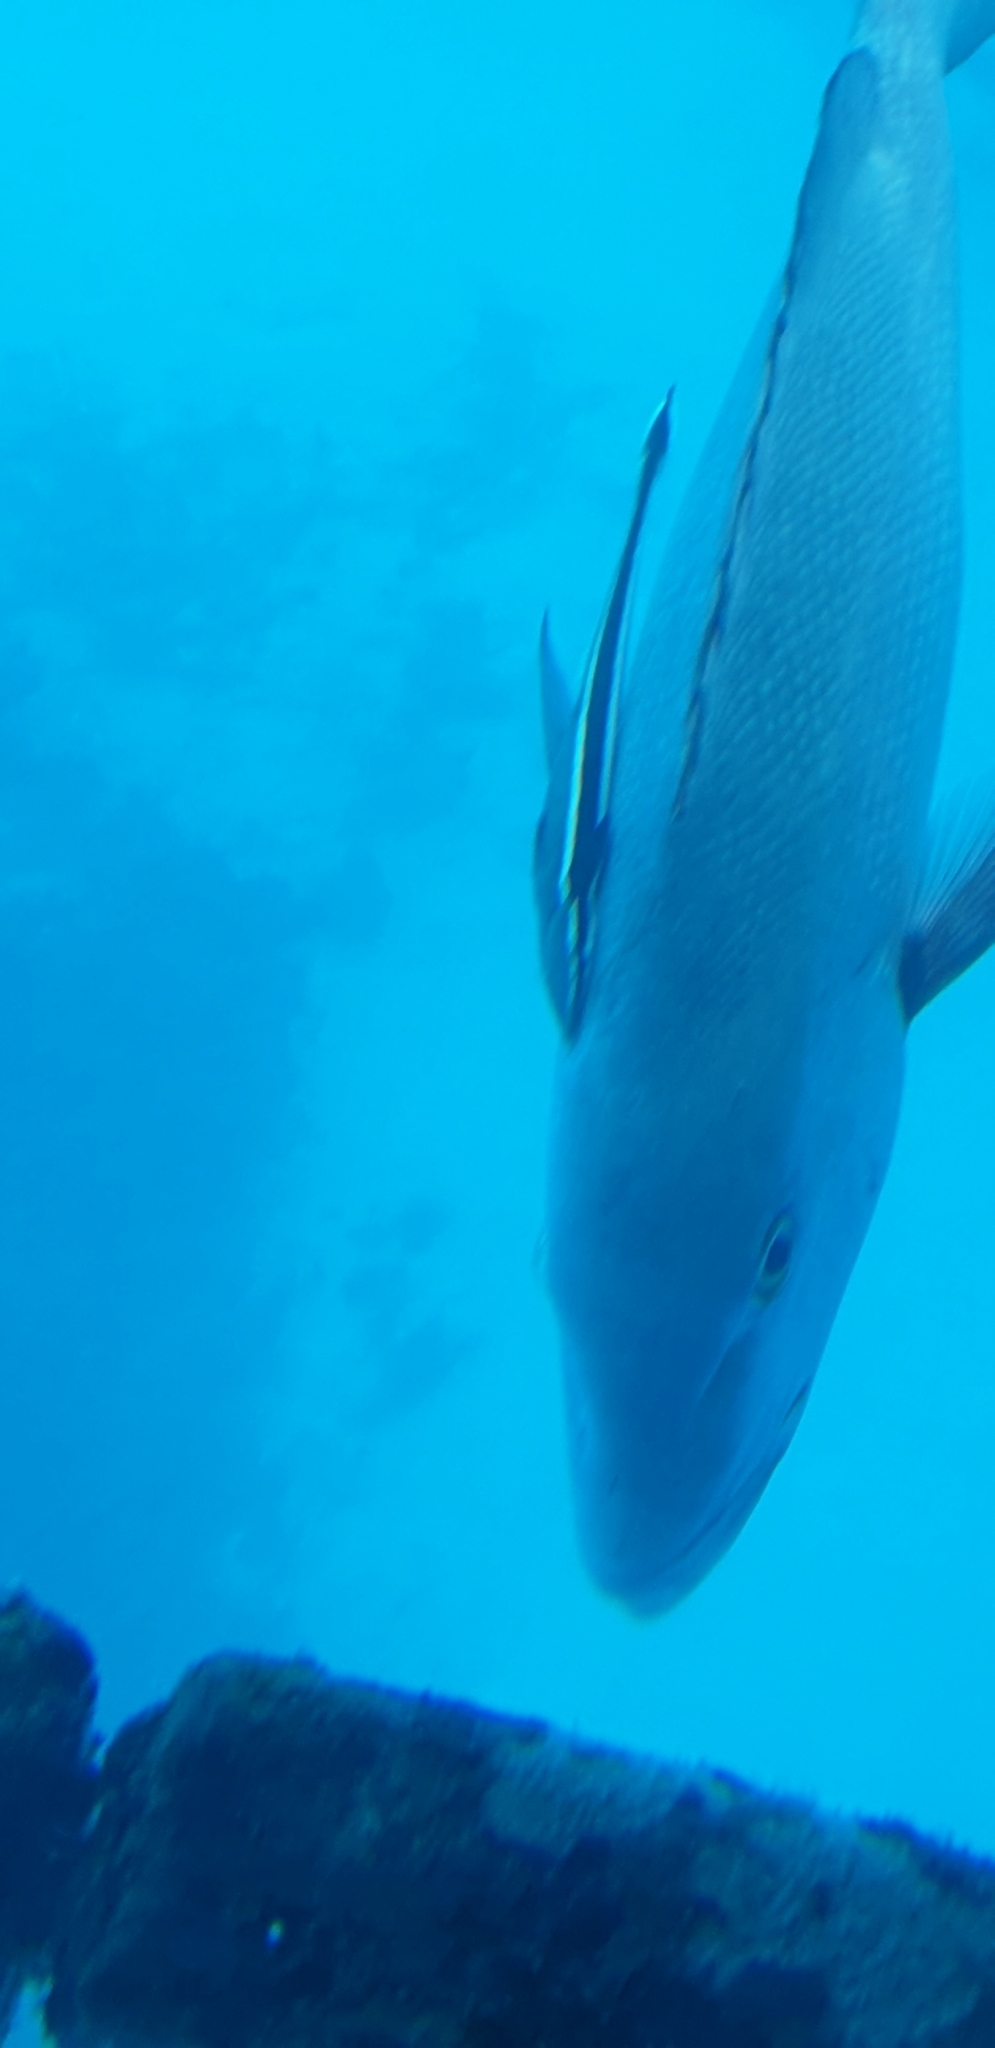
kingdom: Animalia
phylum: Chordata
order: Perciformes
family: Lutjanidae
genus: Lutjanus
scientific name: Lutjanus bohar
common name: Red bass
